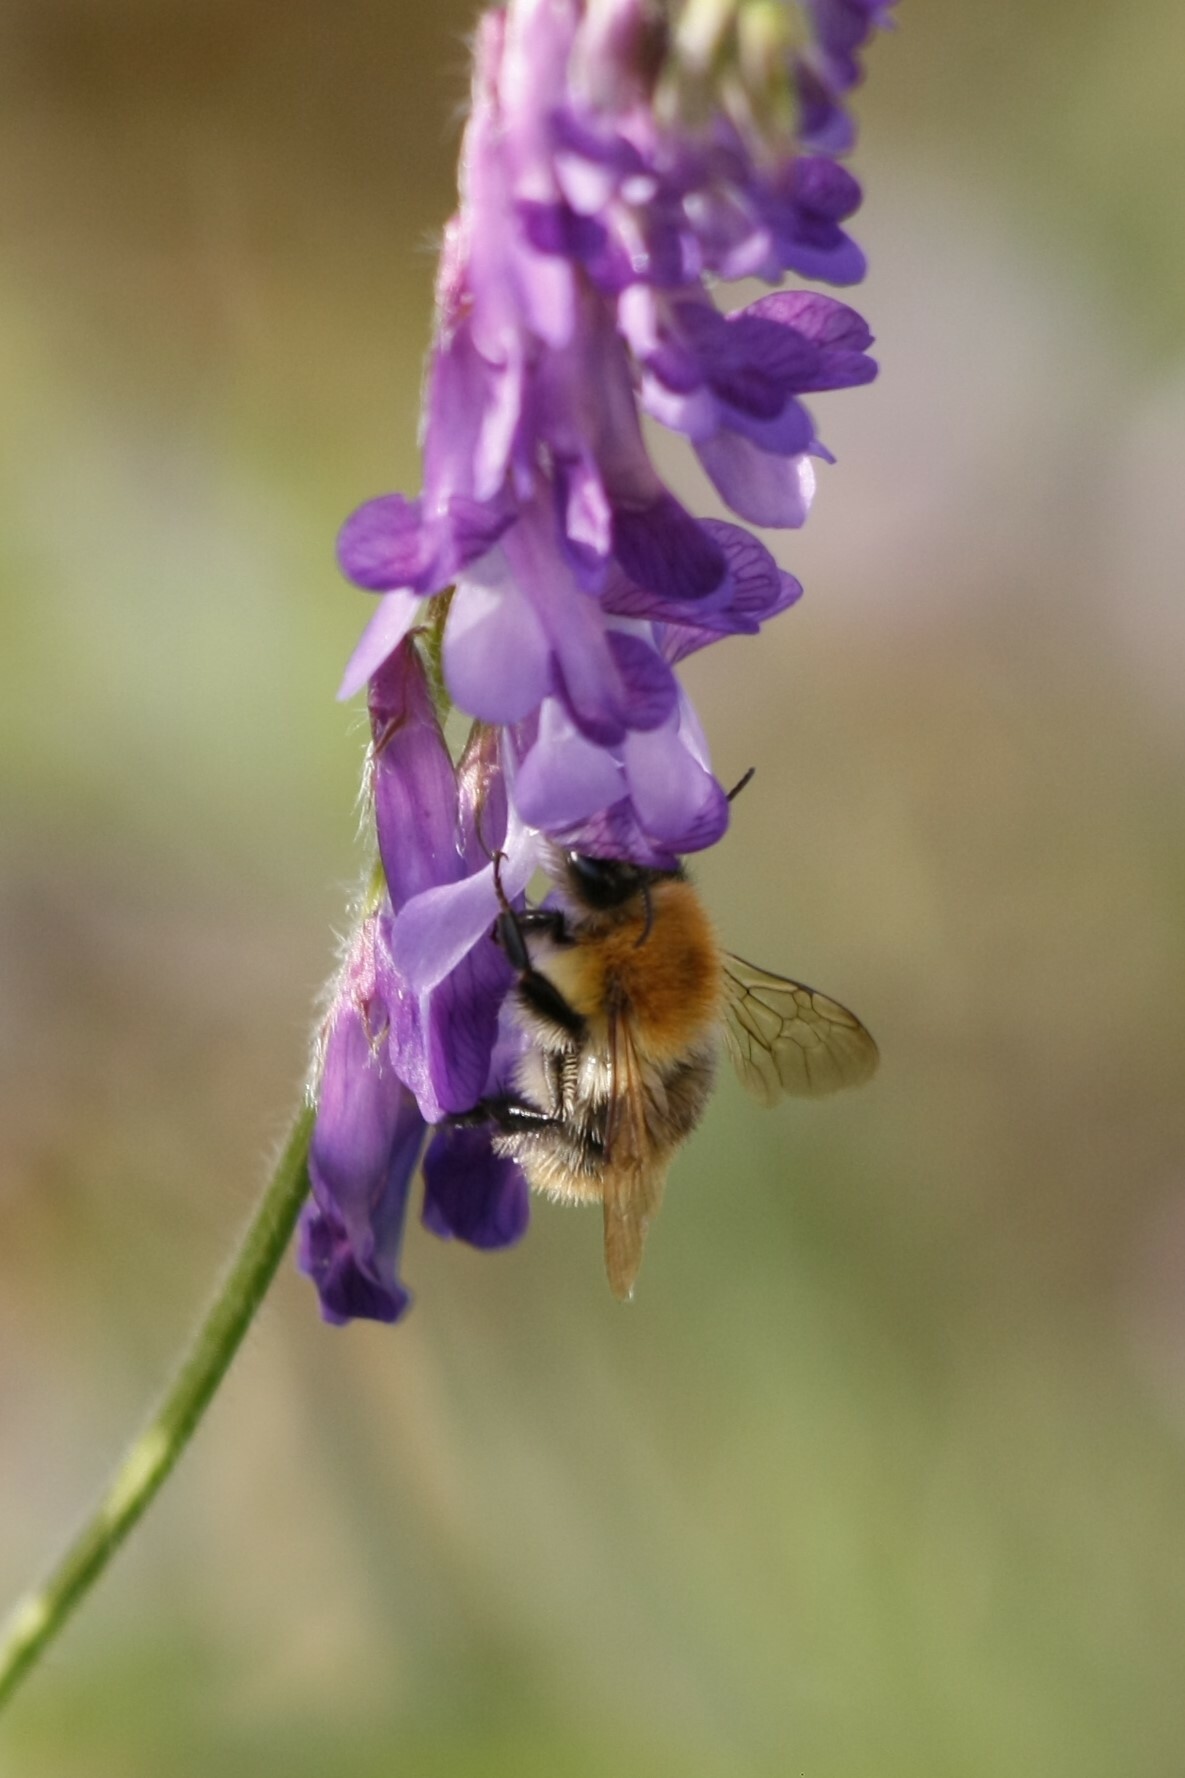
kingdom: Animalia
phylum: Arthropoda
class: Insecta
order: Hymenoptera
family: Apidae
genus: Bombus
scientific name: Bombus pascuorum
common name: Common carder bee
